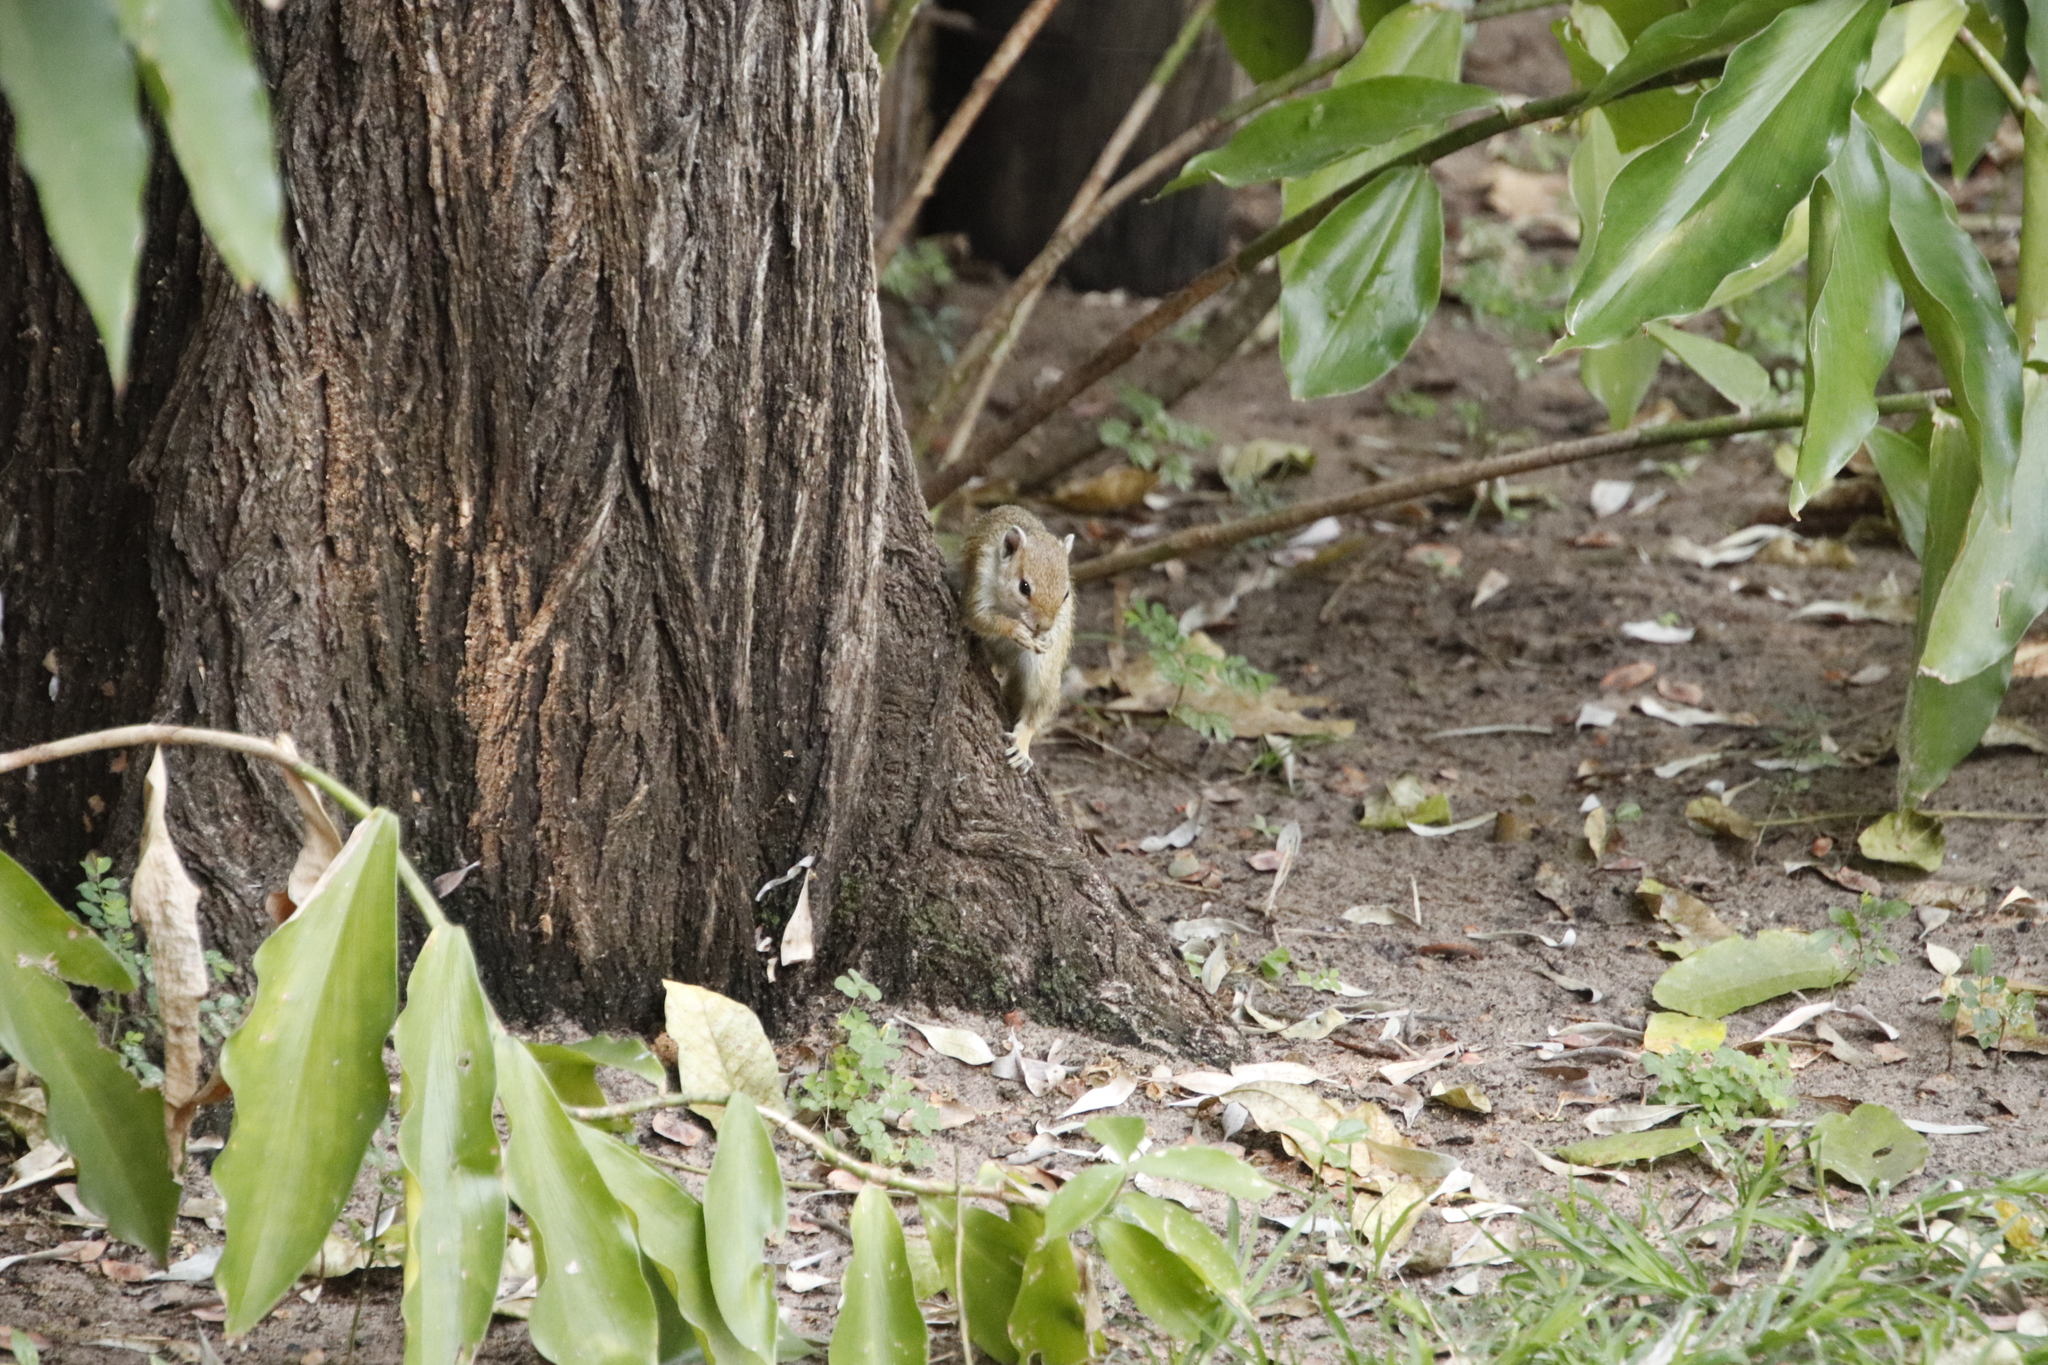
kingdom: Animalia
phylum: Chordata
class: Mammalia
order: Rodentia
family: Sciuridae
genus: Paraxerus
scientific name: Paraxerus cepapi
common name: Smith's bush squirrel
